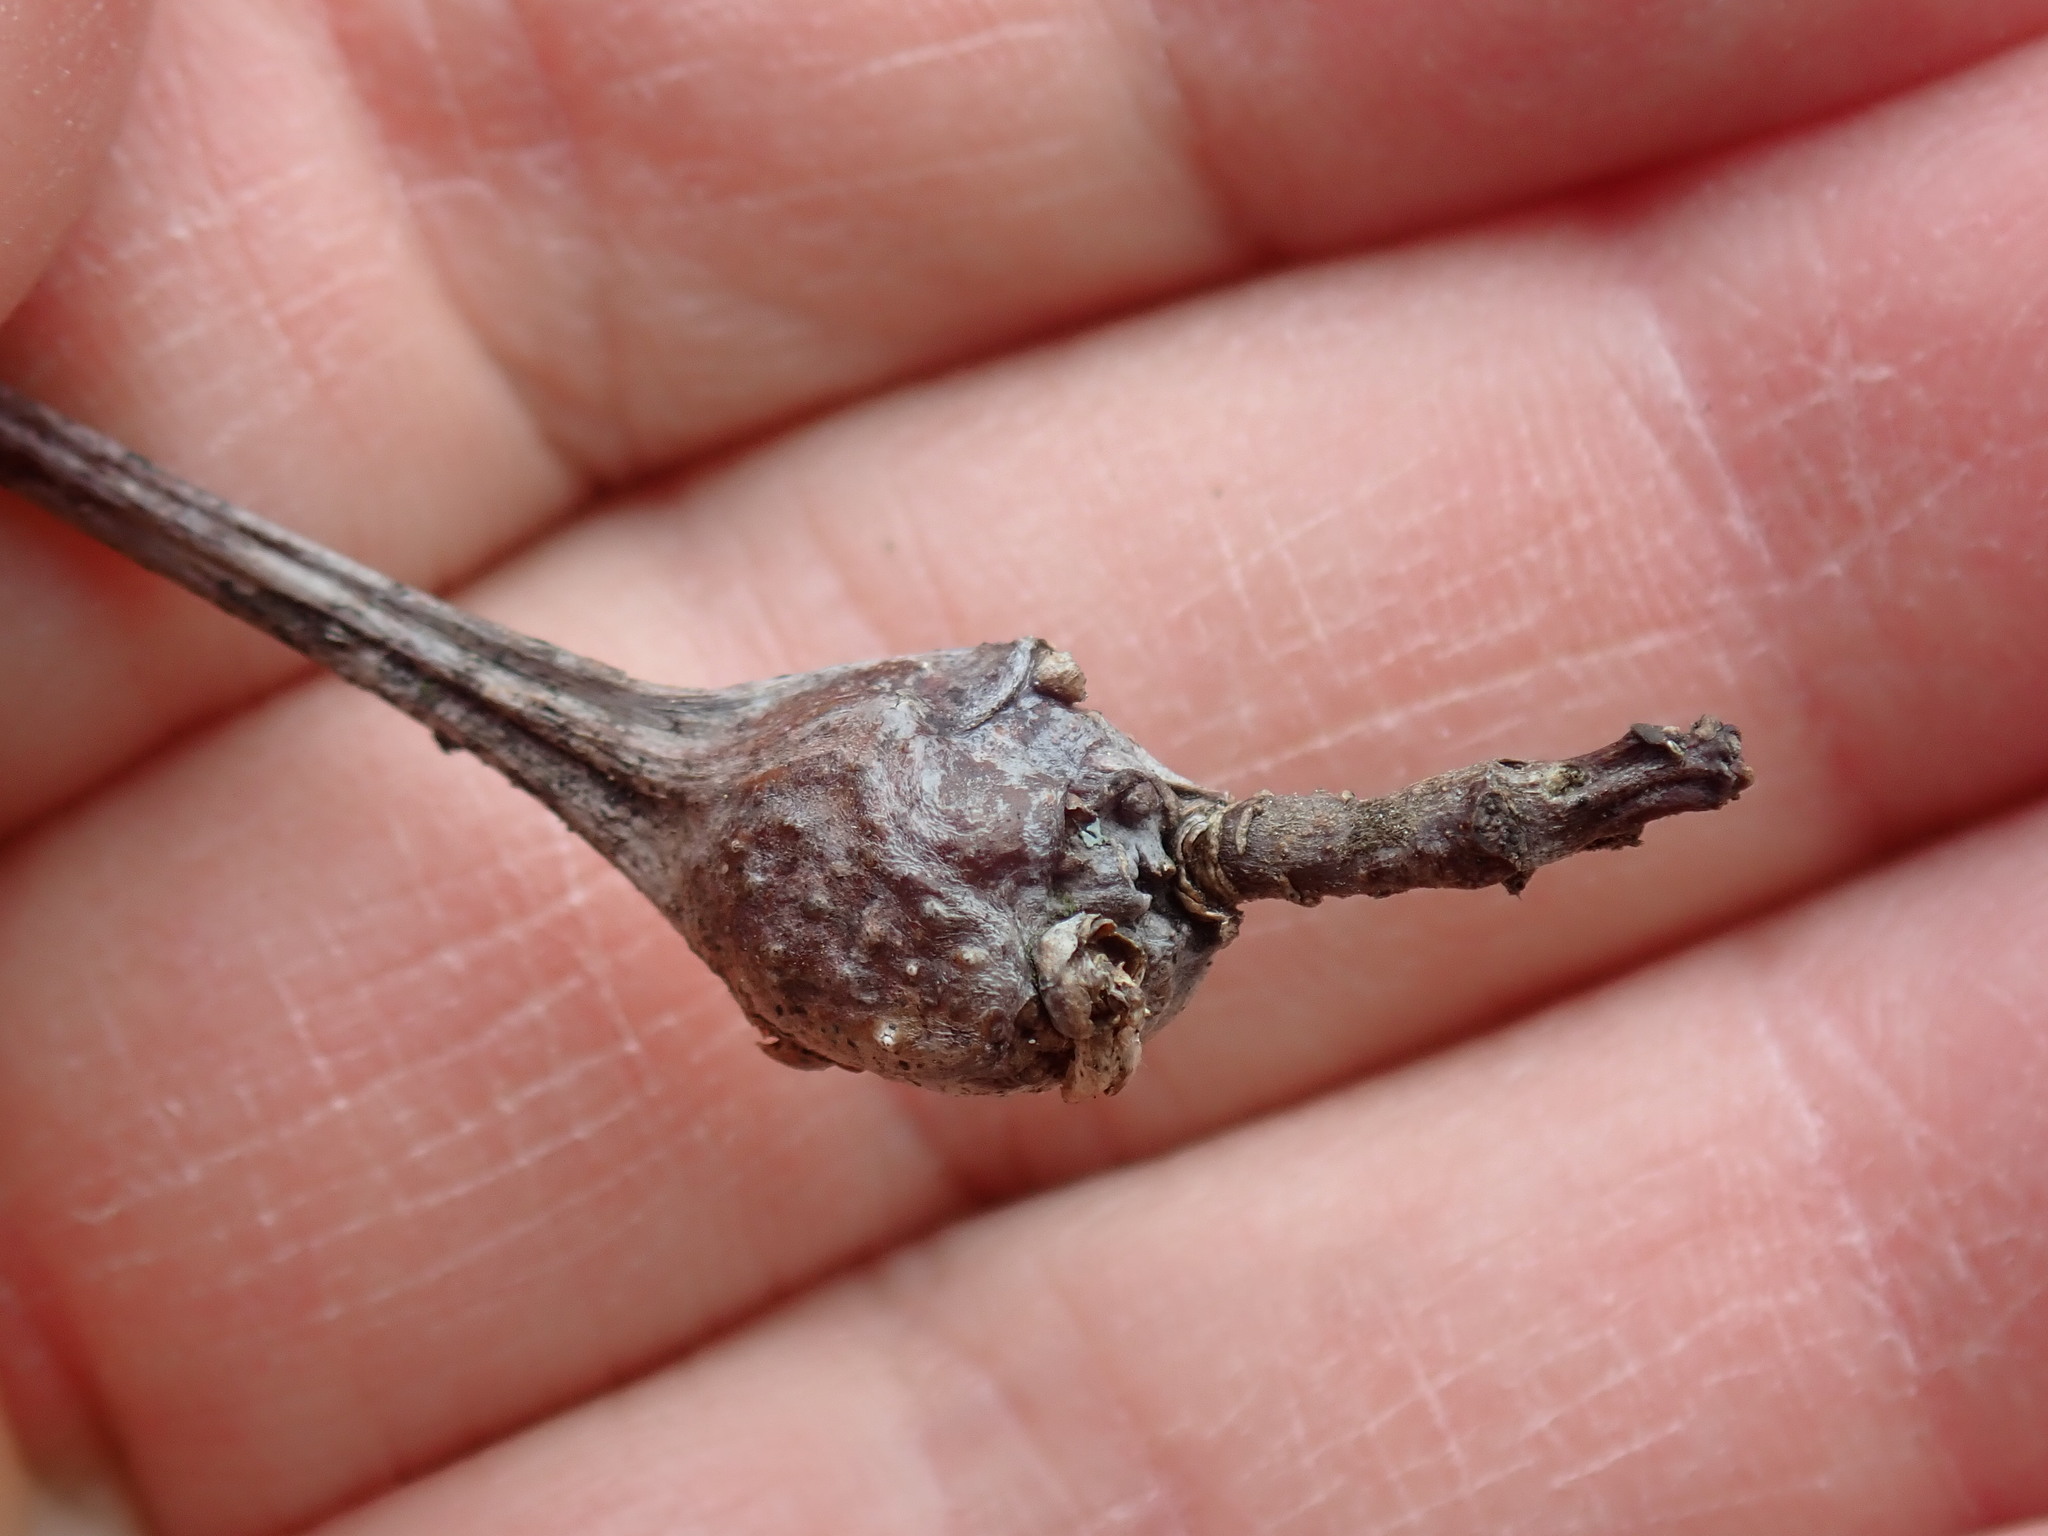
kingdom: Animalia
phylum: Arthropoda
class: Insecta
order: Hymenoptera
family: Cynipidae
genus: Callirhytis
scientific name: Callirhytis clavula
